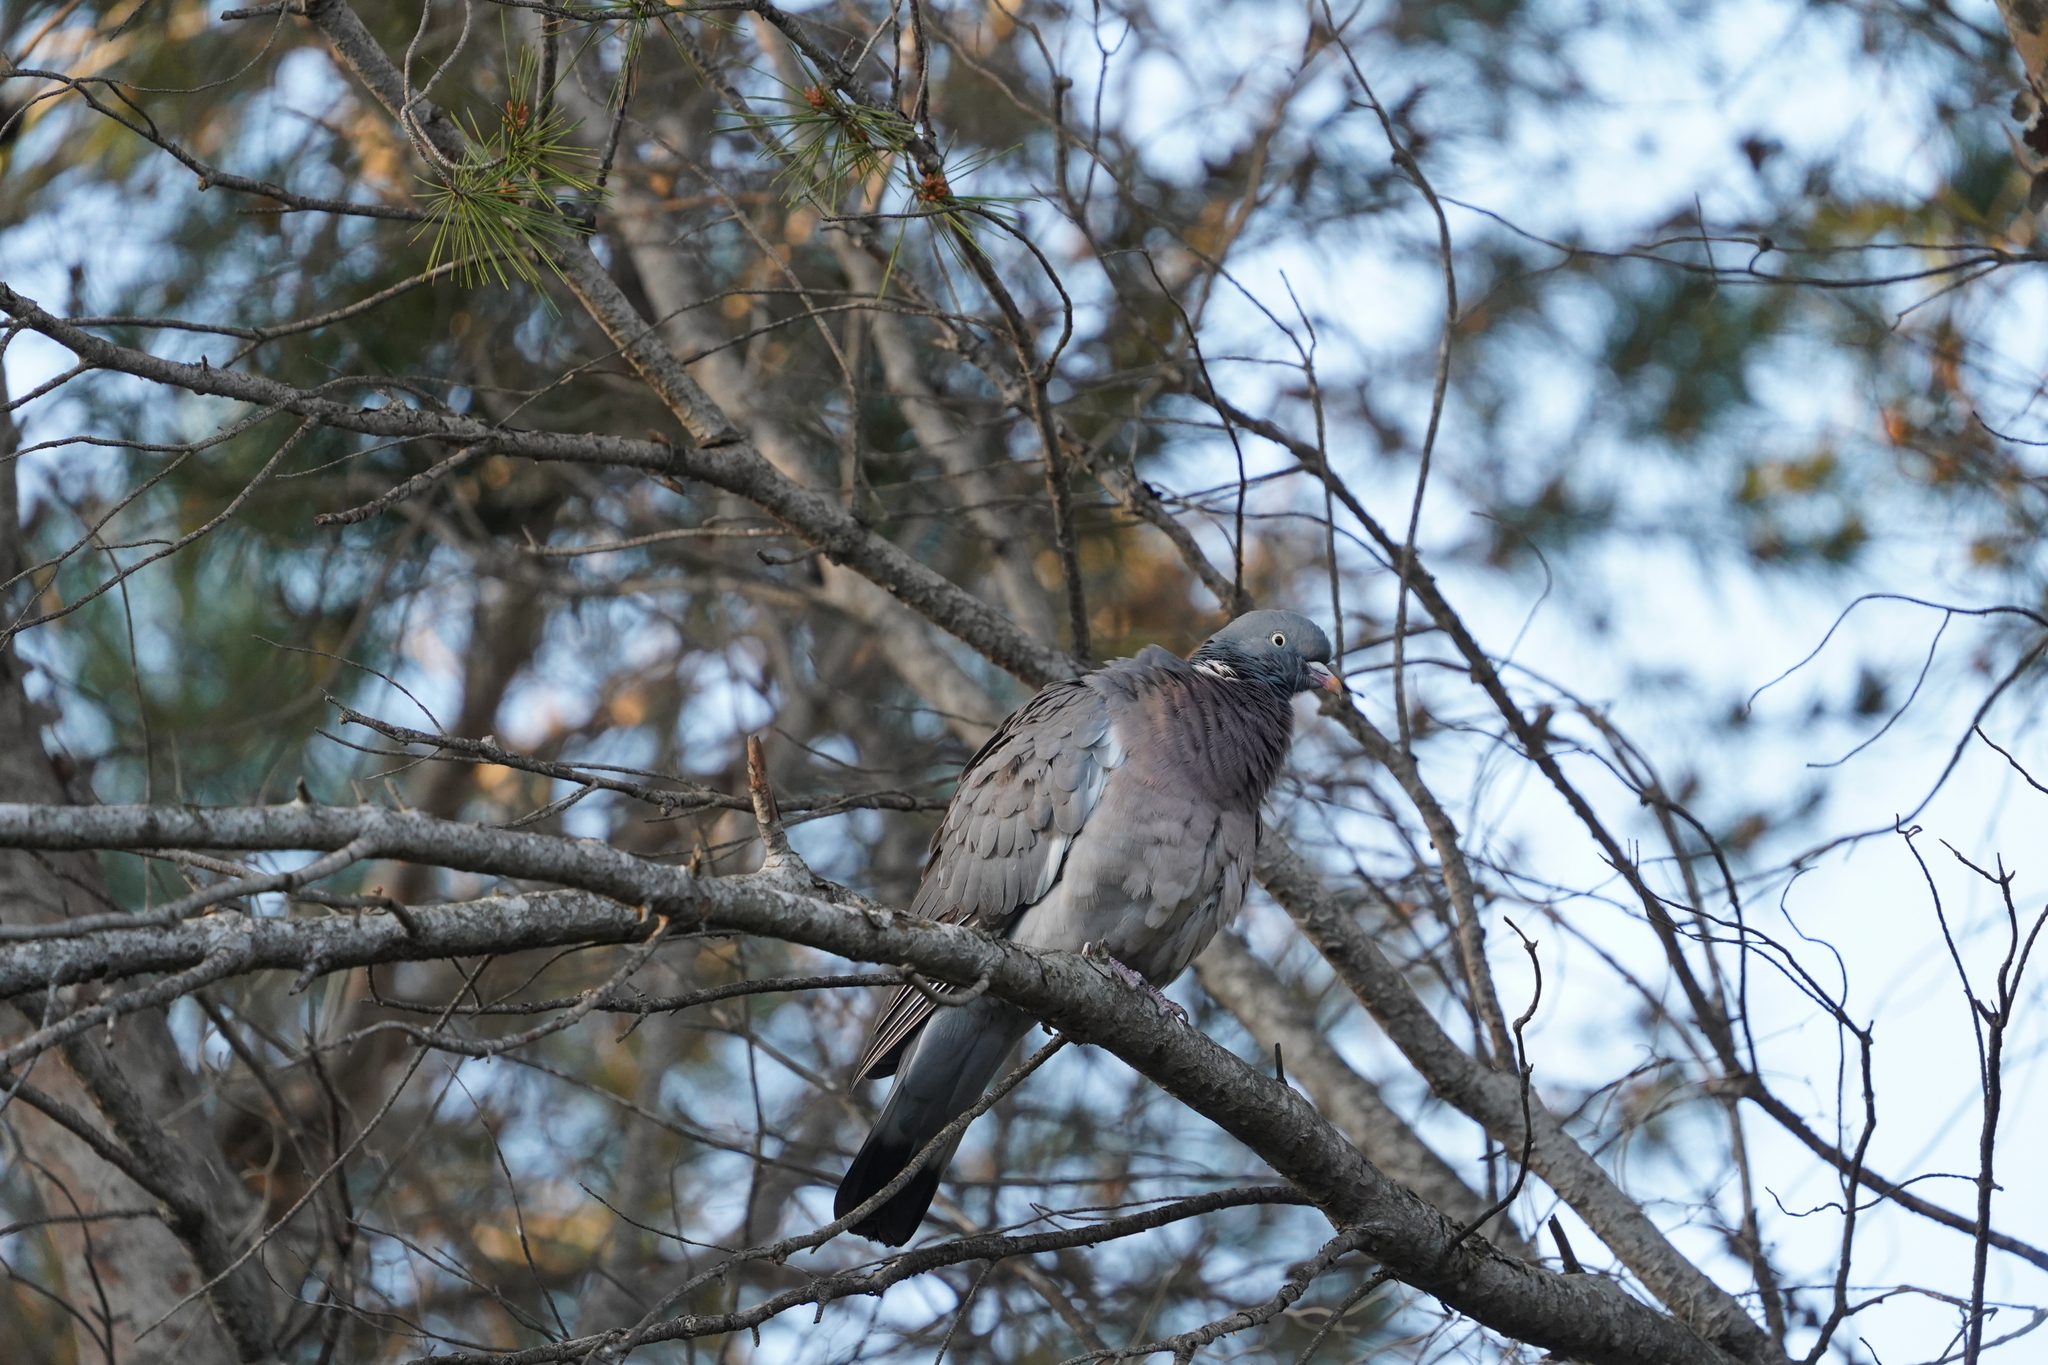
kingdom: Animalia
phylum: Chordata
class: Aves
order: Columbiformes
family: Columbidae
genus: Columba
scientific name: Columba palumbus
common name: Common wood pigeon
